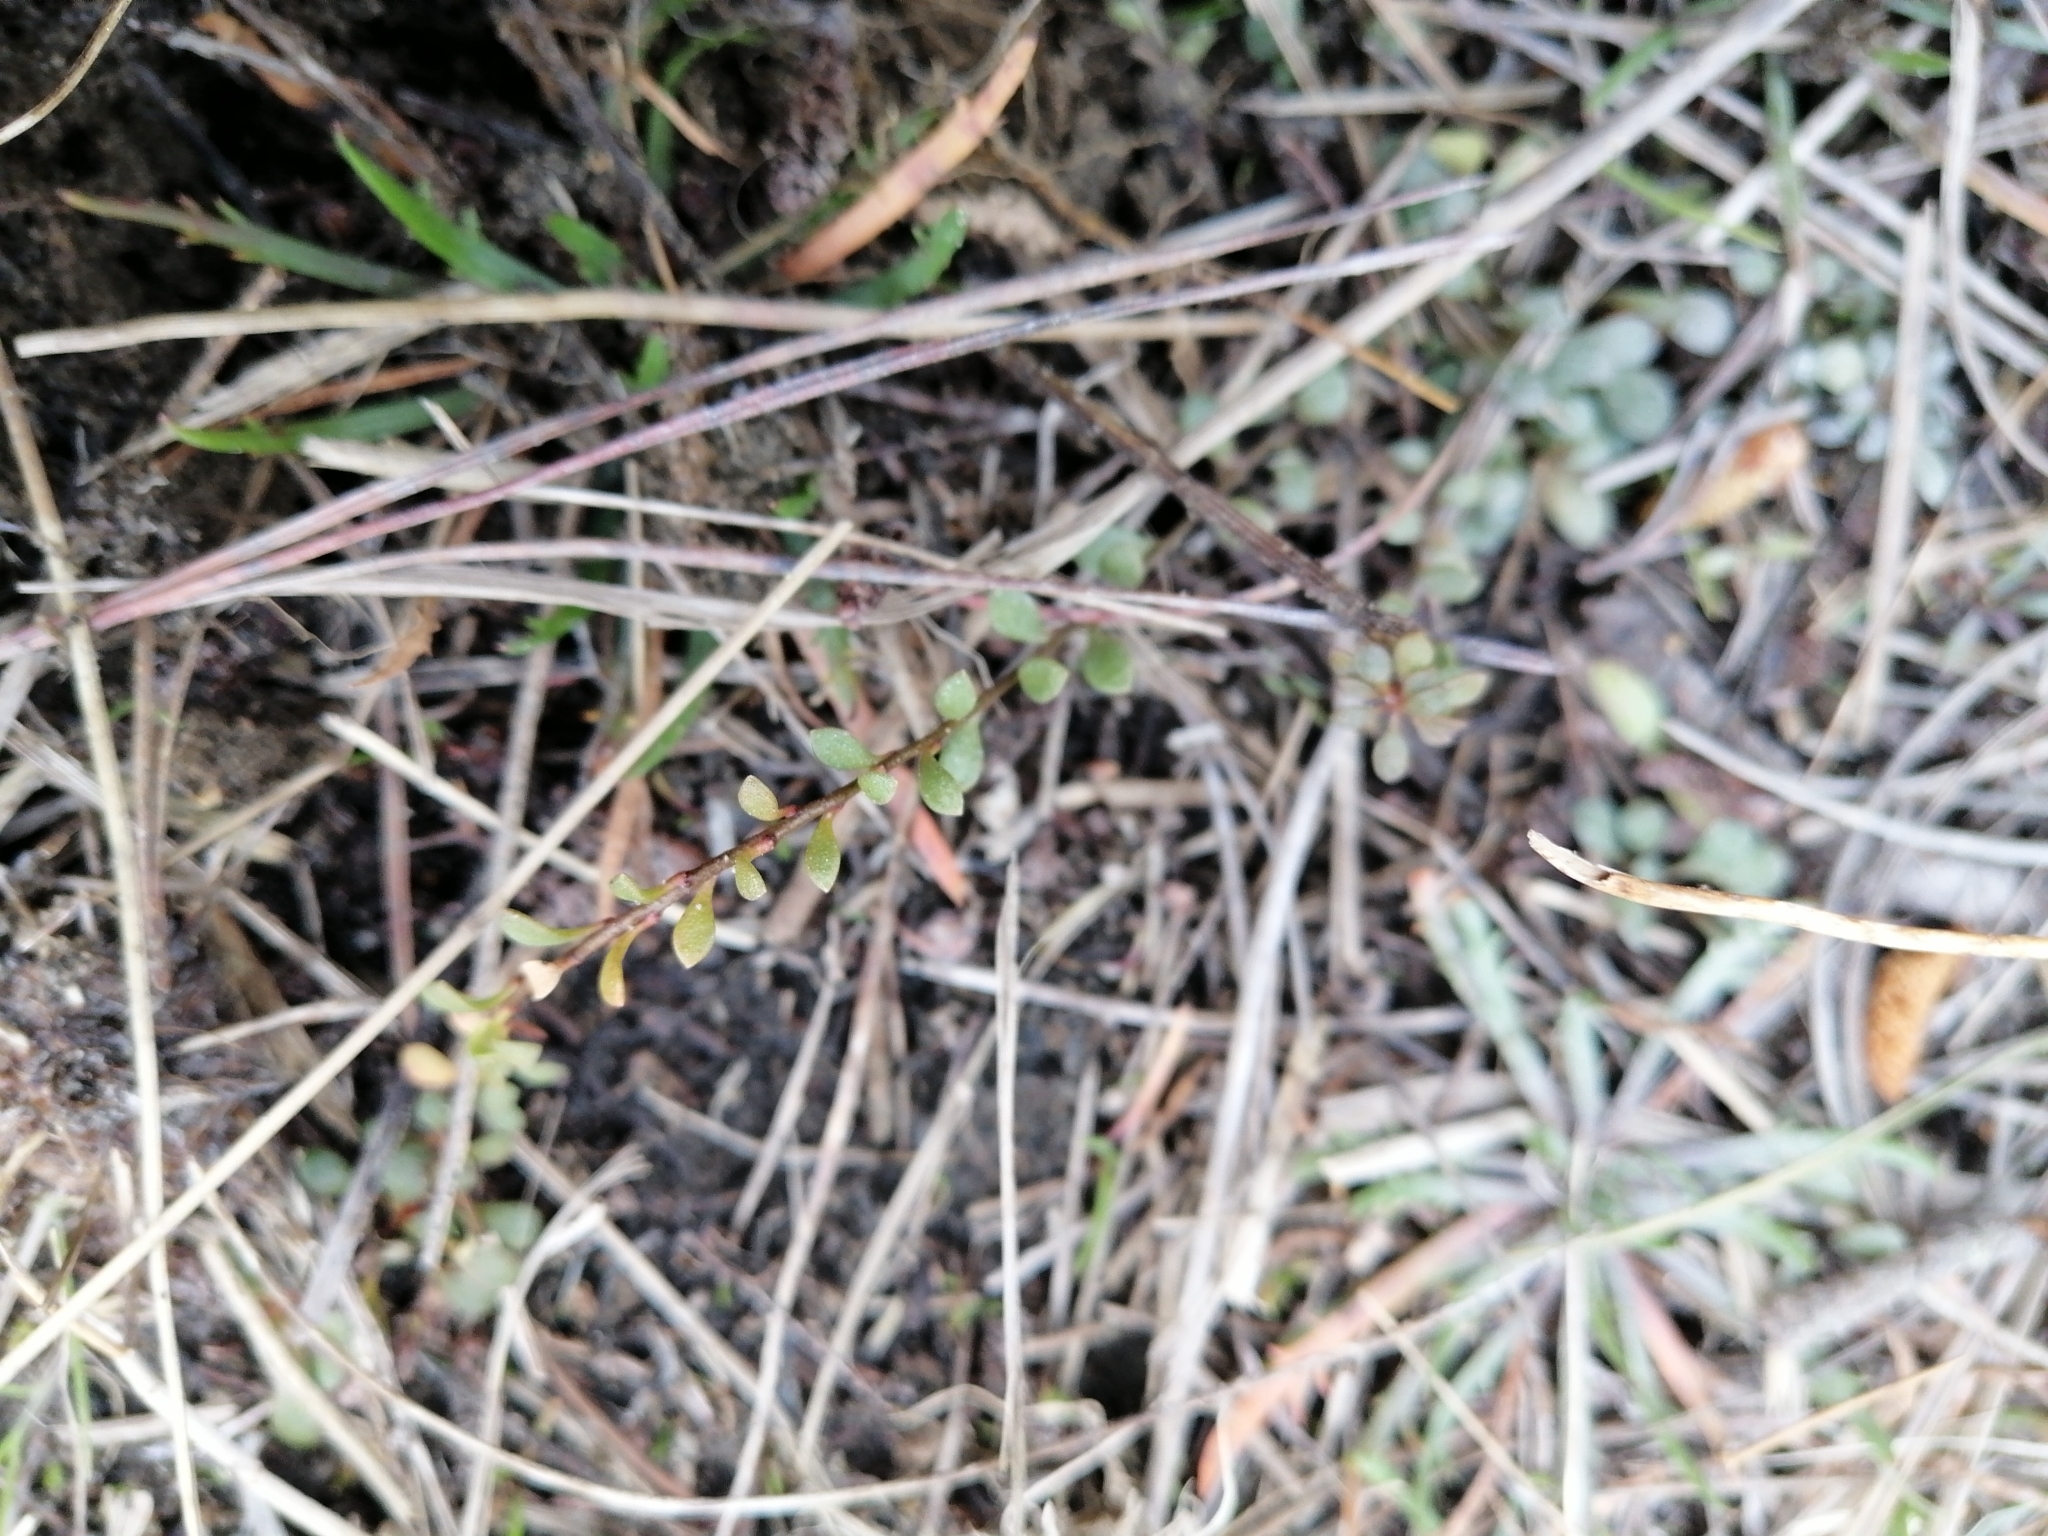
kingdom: Plantae
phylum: Tracheophyta
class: Magnoliopsida
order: Ericales
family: Primulaceae
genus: Samolus
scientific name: Samolus repens
